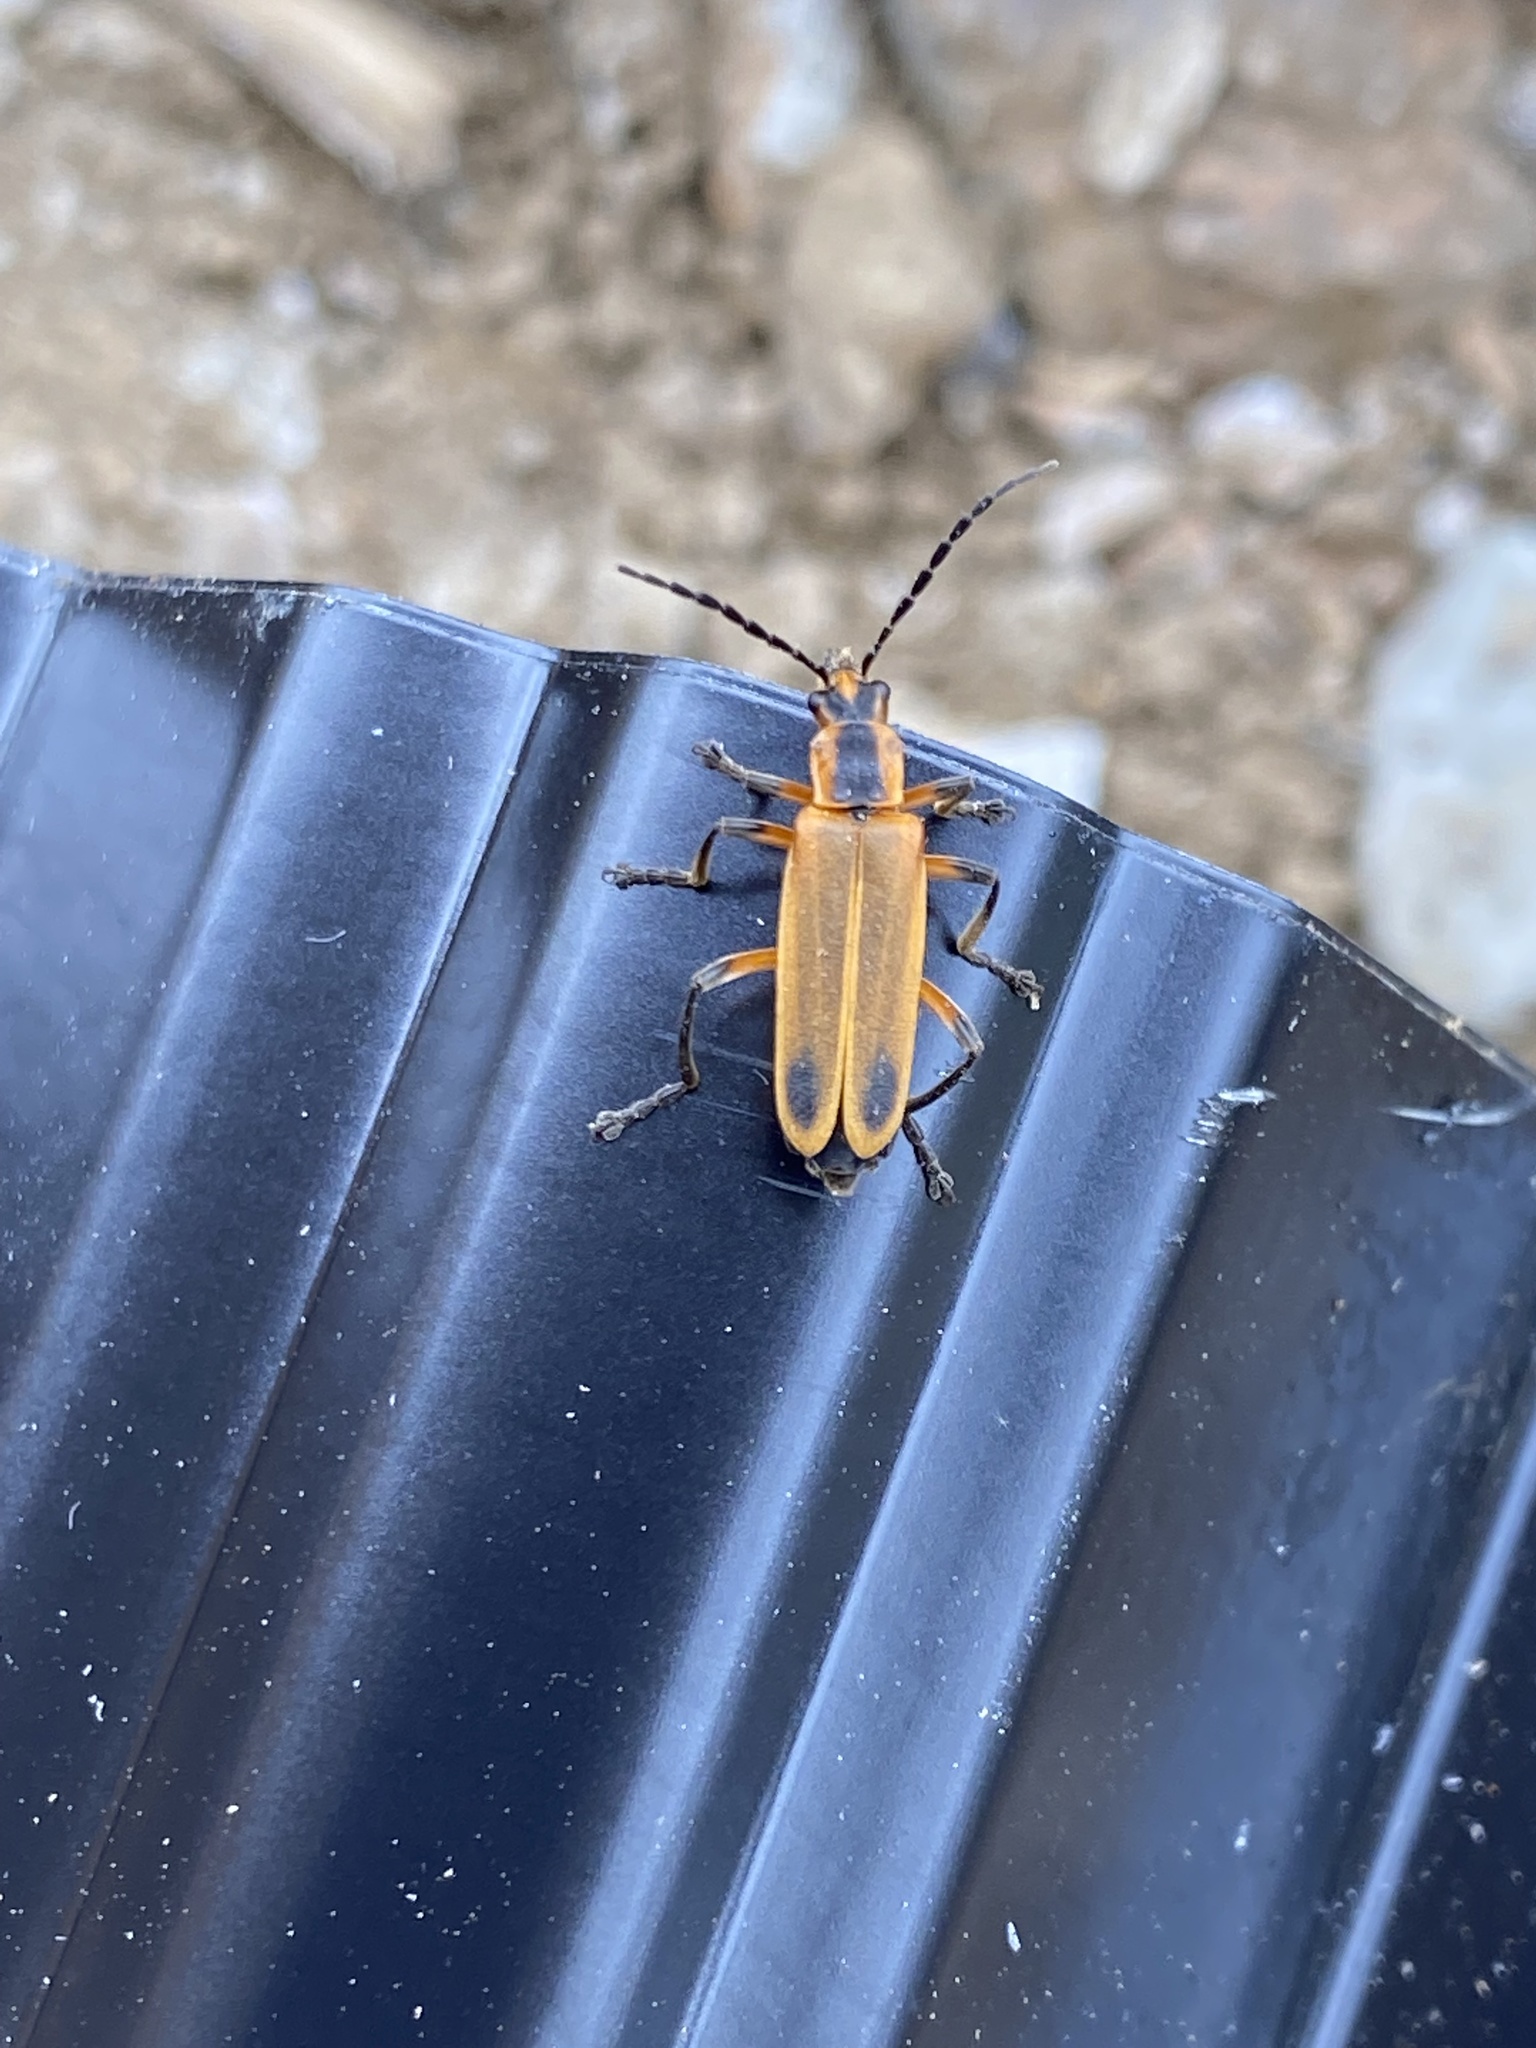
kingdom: Animalia
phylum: Arthropoda
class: Insecta
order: Coleoptera
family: Cantharidae
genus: Chauliognathus
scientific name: Chauliognathus marginatus
